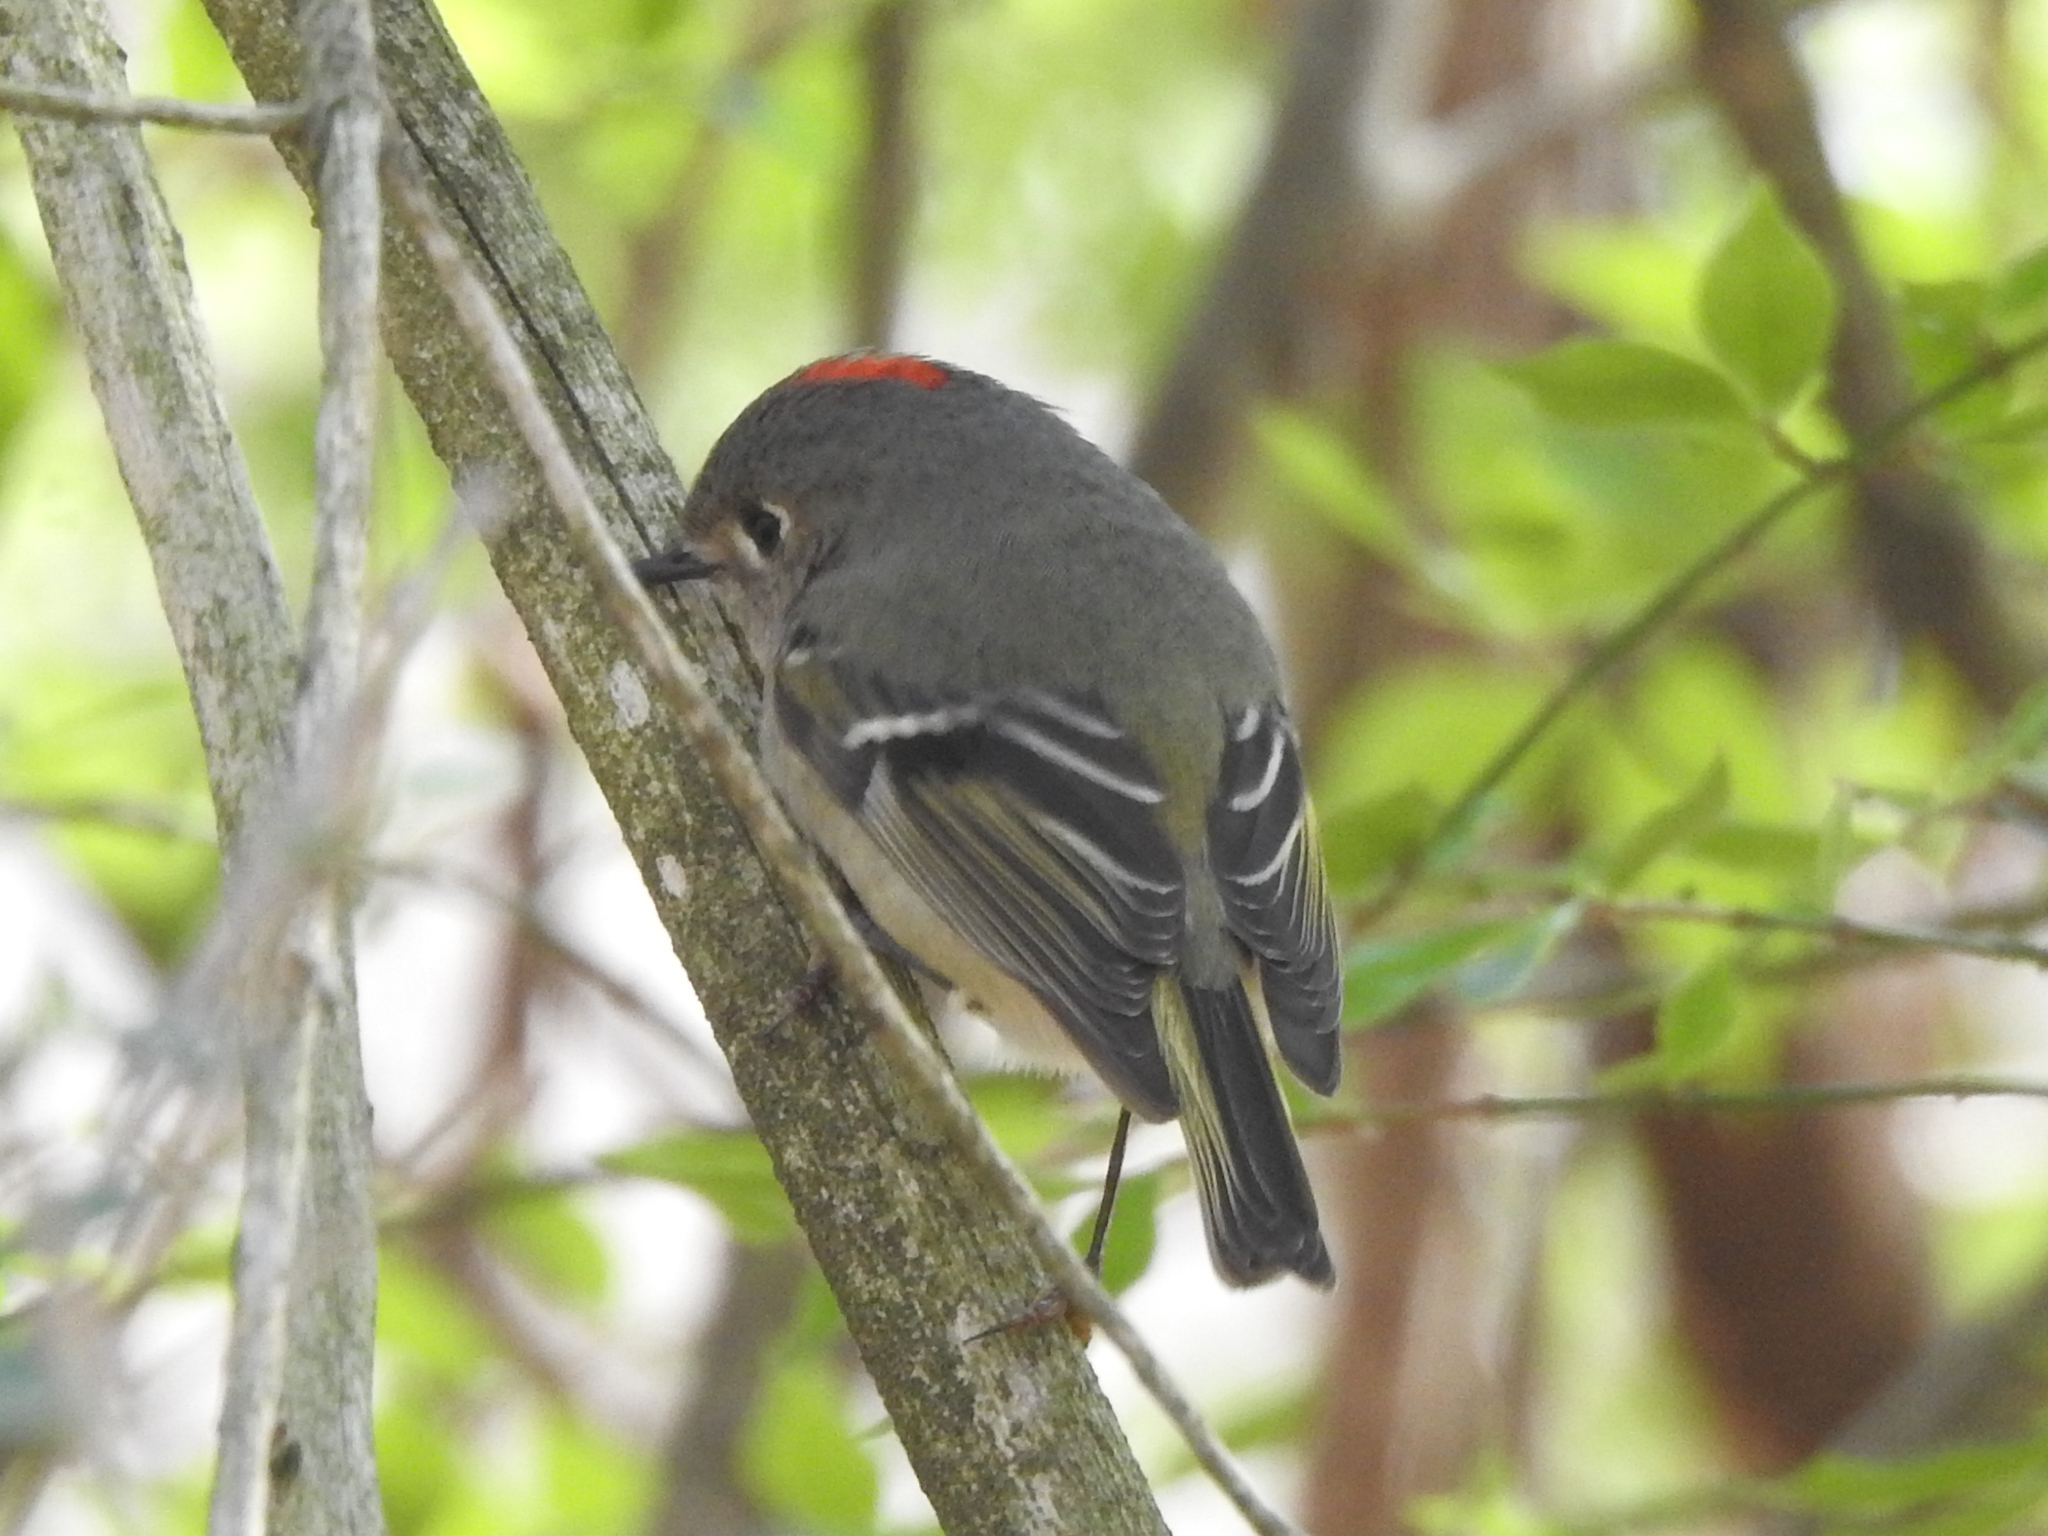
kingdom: Animalia
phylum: Chordata
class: Aves
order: Passeriformes
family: Regulidae
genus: Regulus
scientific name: Regulus calendula
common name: Ruby-crowned kinglet
